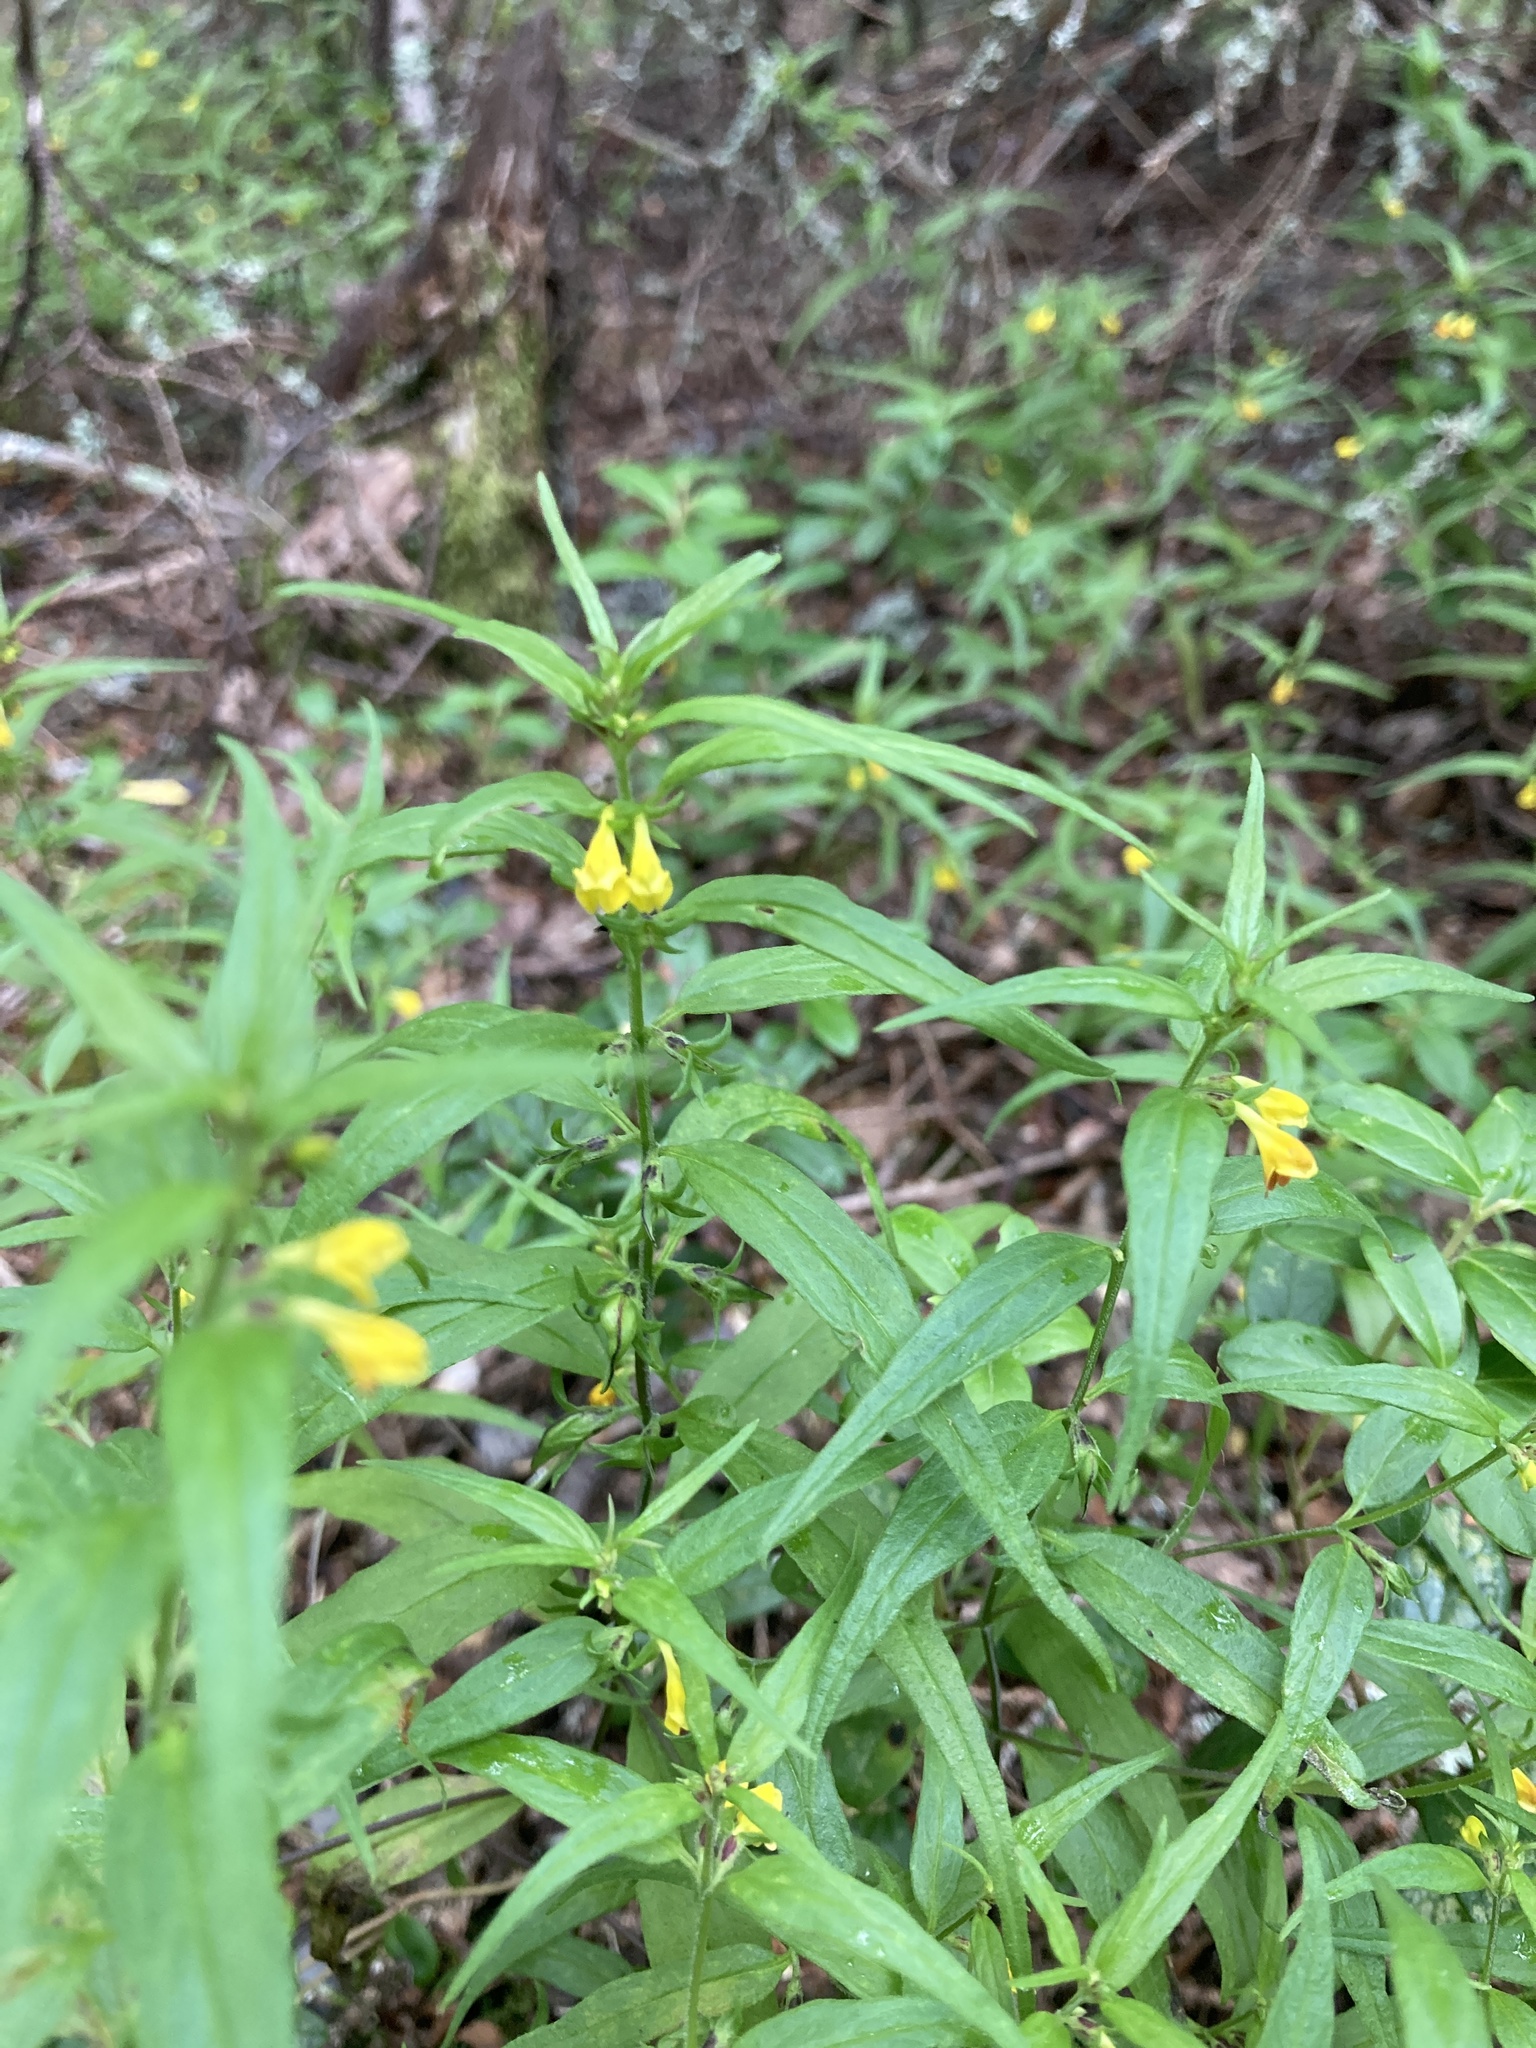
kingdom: Plantae
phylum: Tracheophyta
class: Magnoliopsida
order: Lamiales
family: Orobanchaceae
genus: Melampyrum
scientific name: Melampyrum sylvaticum
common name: Small cow-wheat
